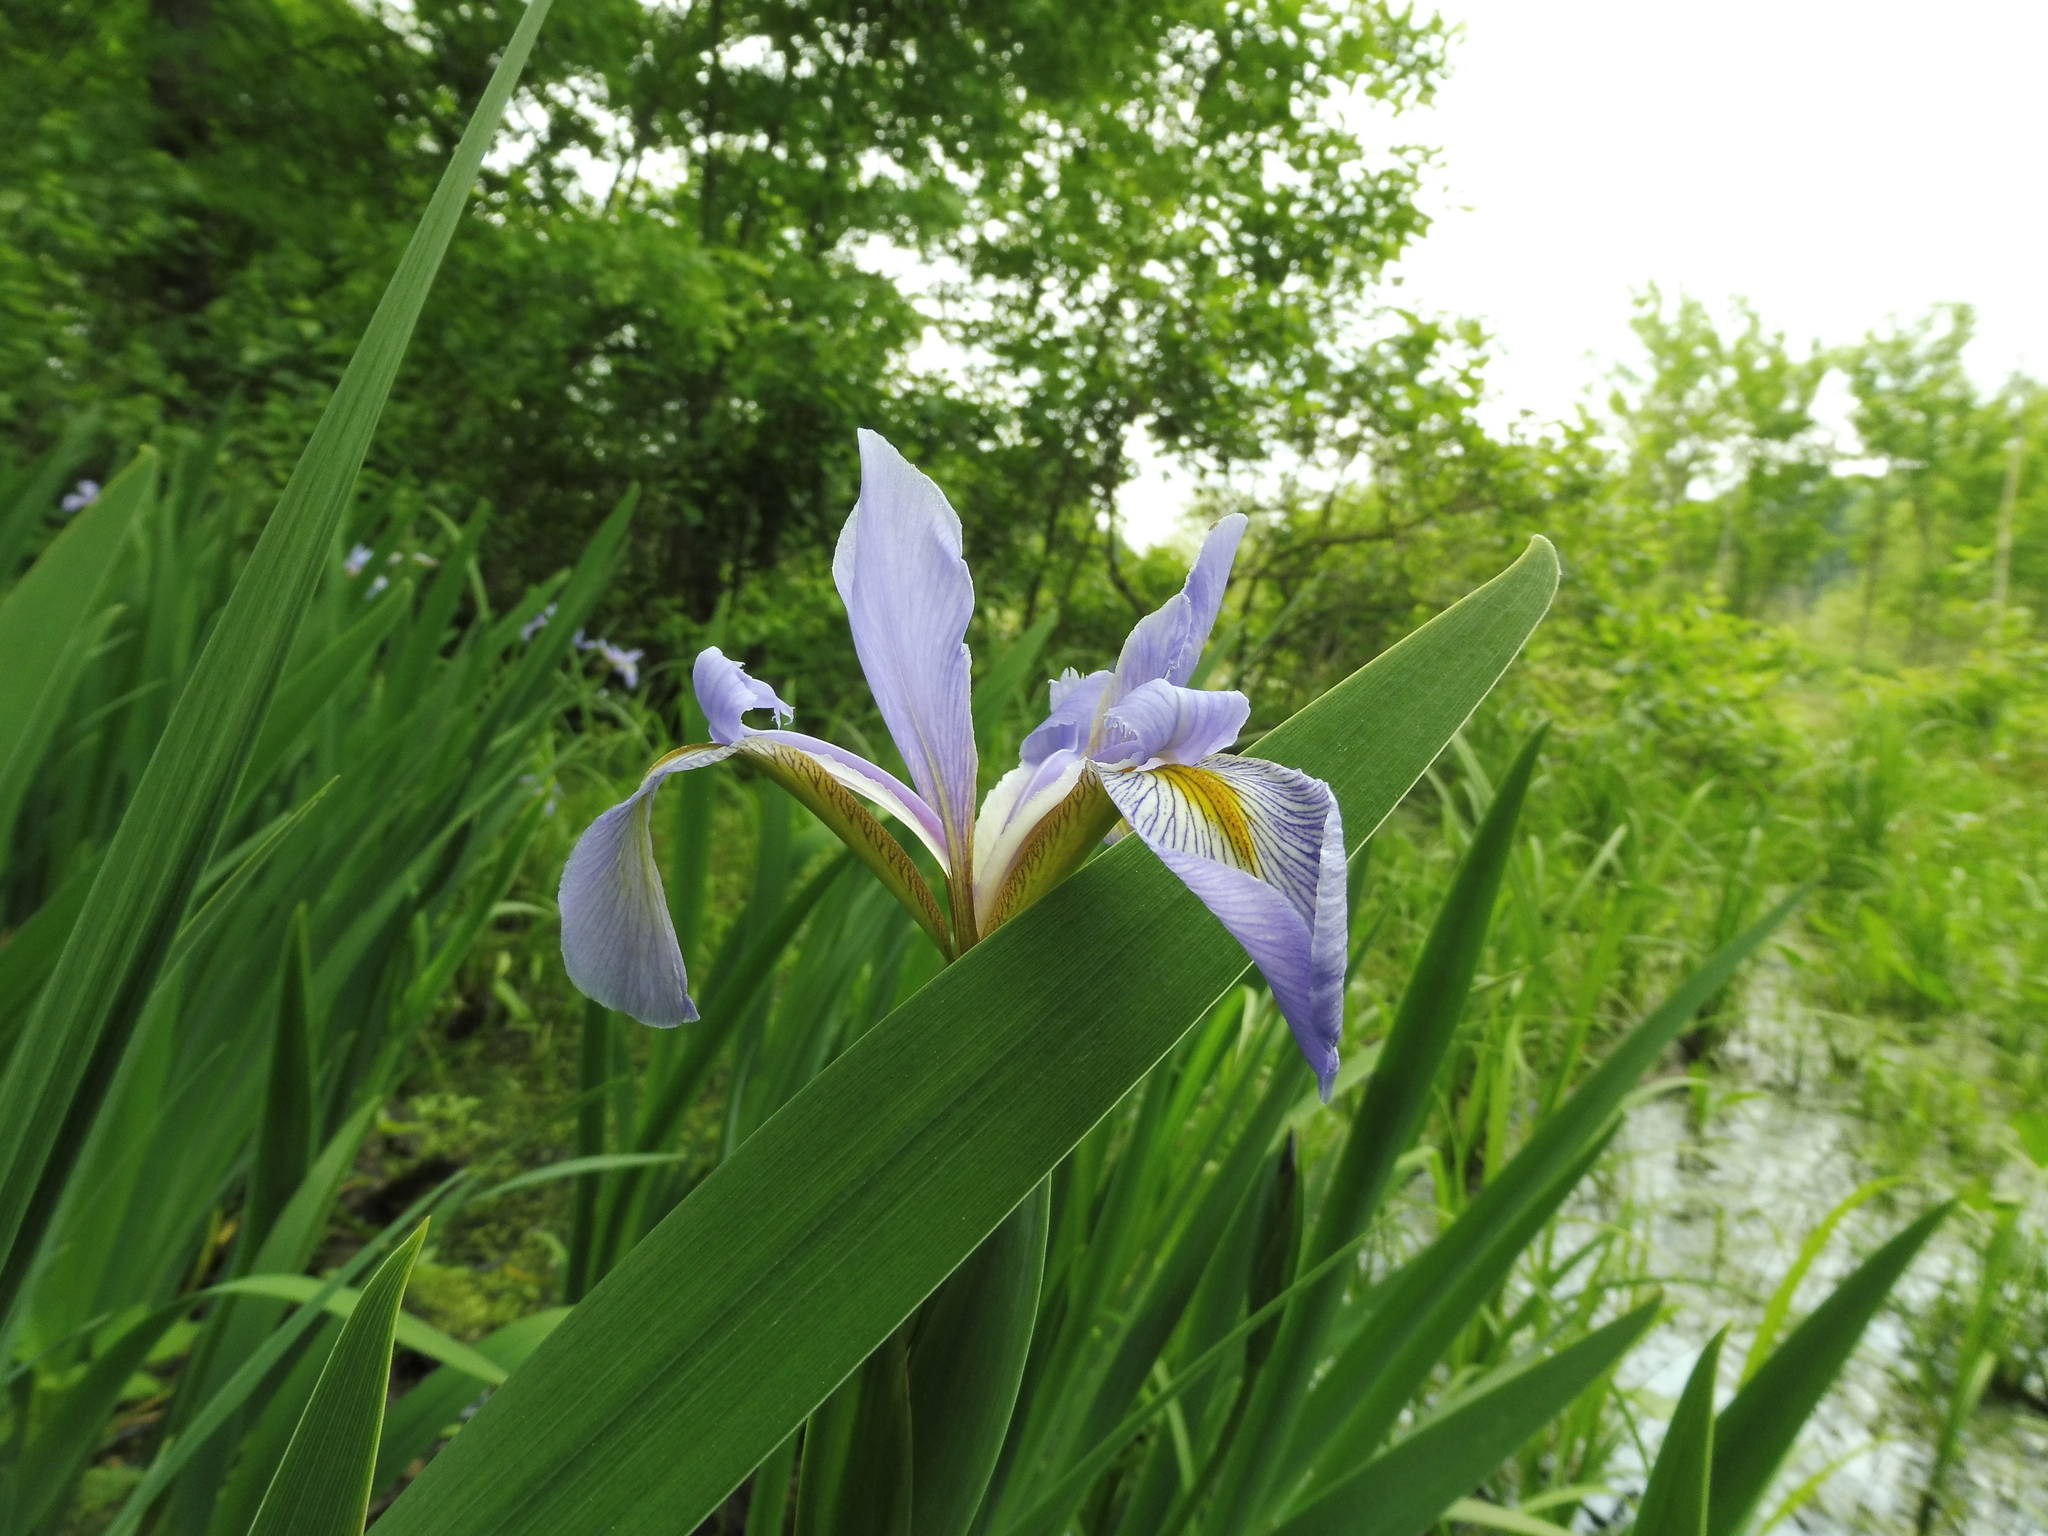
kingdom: Plantae
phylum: Tracheophyta
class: Liliopsida
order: Asparagales
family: Iridaceae
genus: Iris
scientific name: Iris virginica
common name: Southern blue flag
